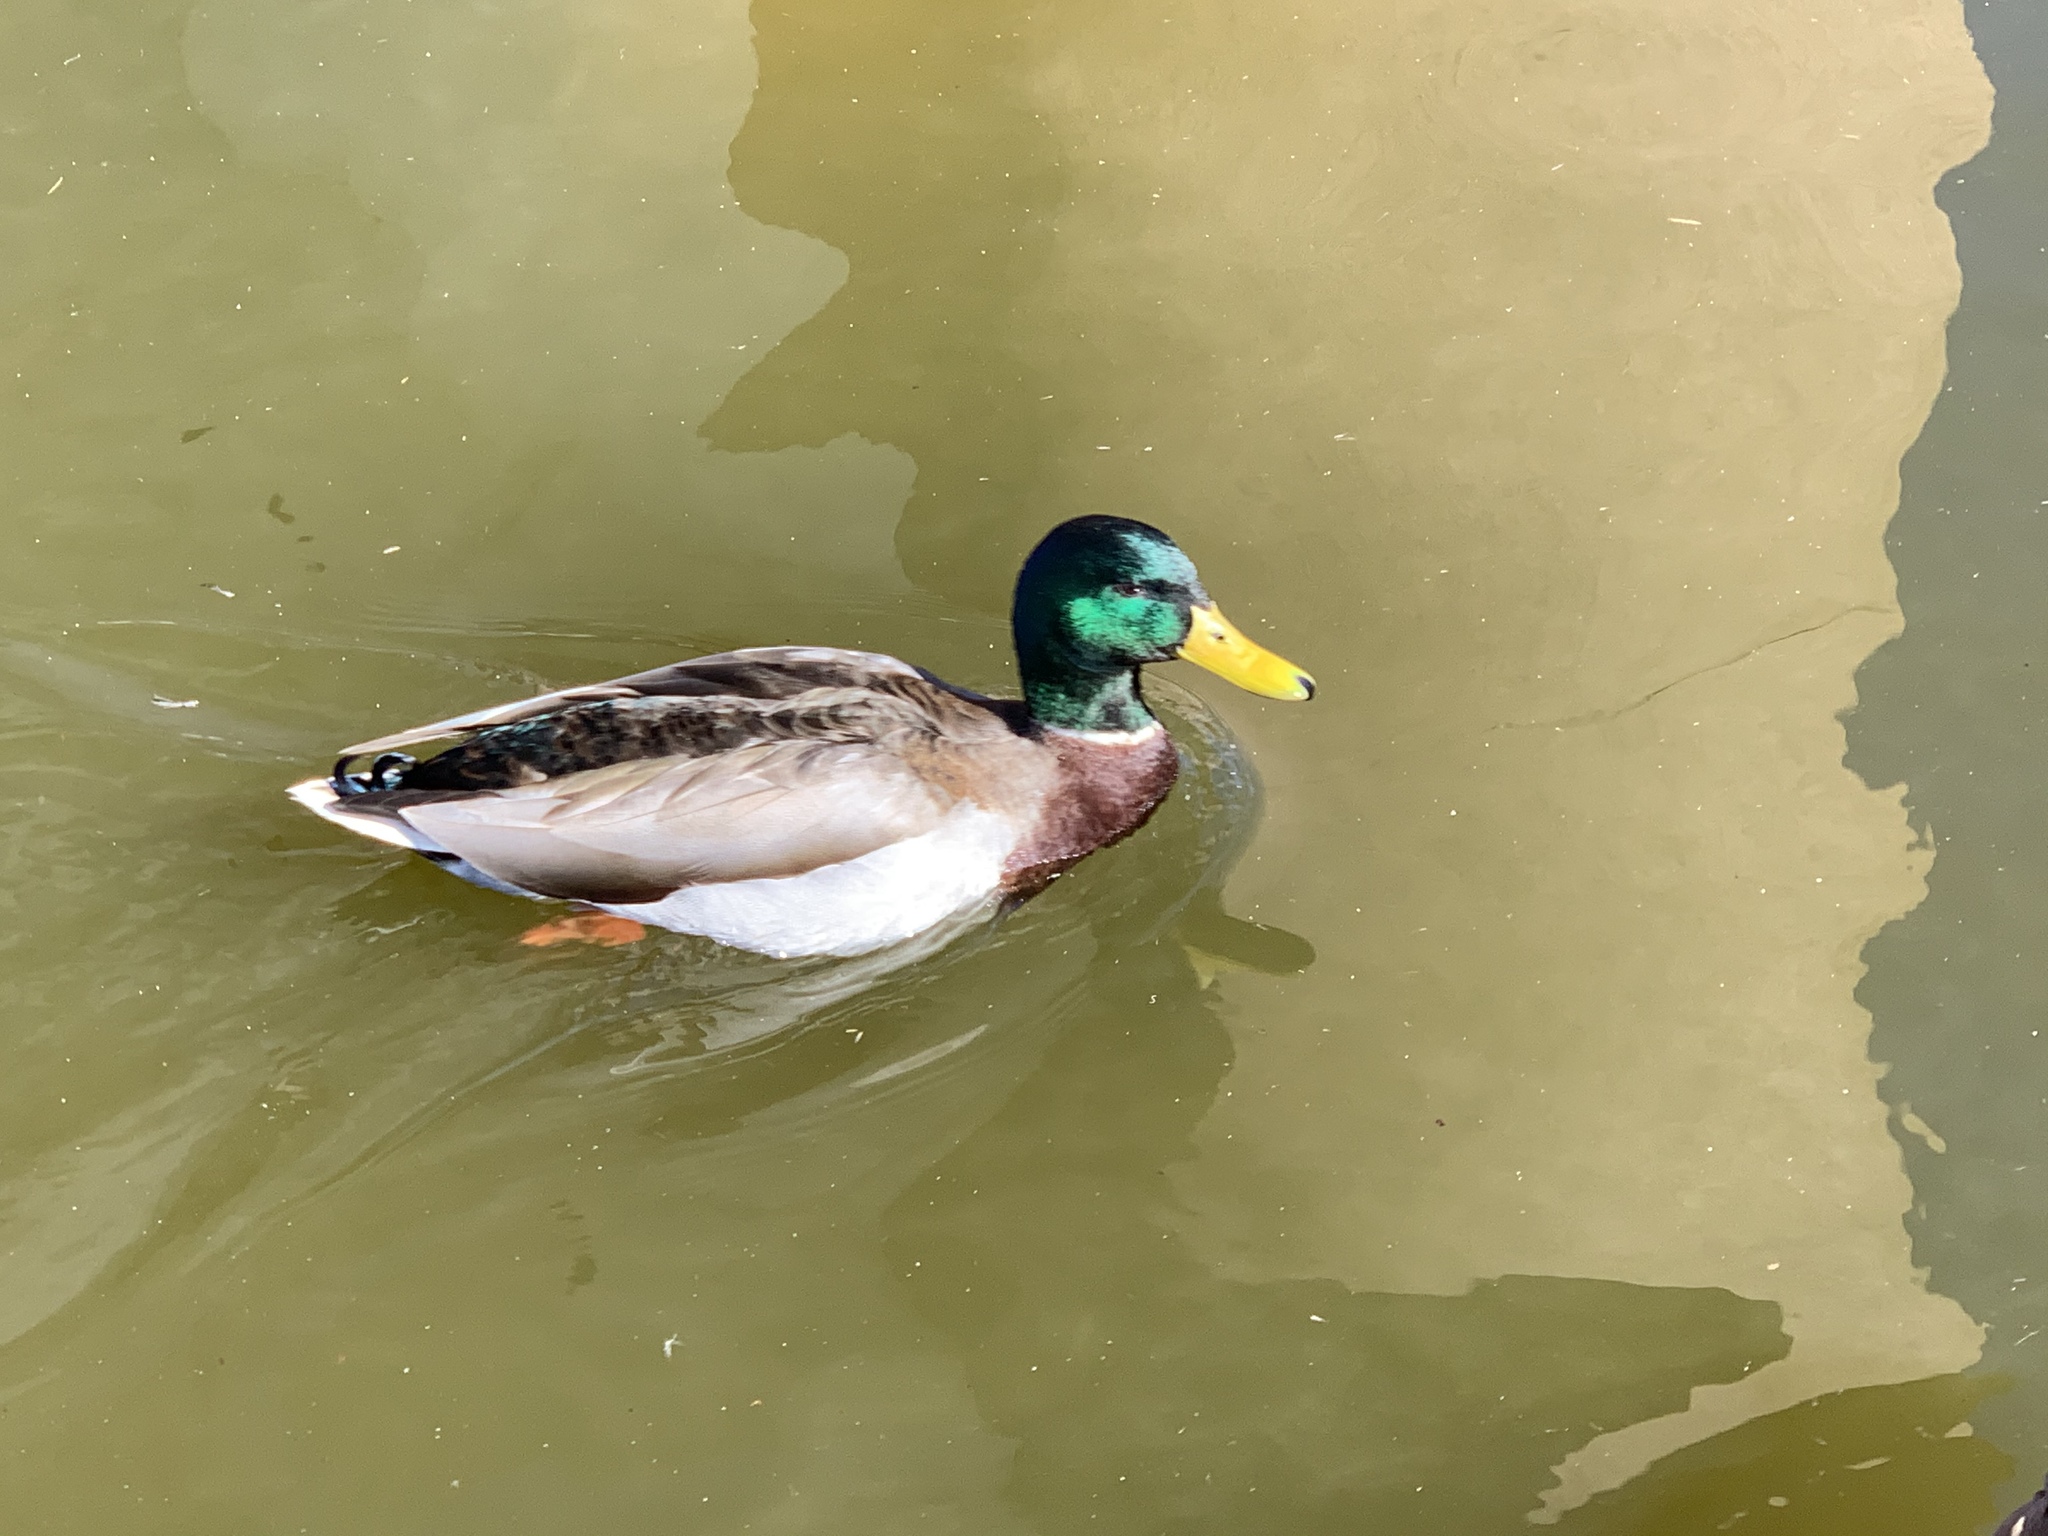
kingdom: Animalia
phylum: Chordata
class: Aves
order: Anseriformes
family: Anatidae
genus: Anas
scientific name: Anas platyrhynchos
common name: Mallard
